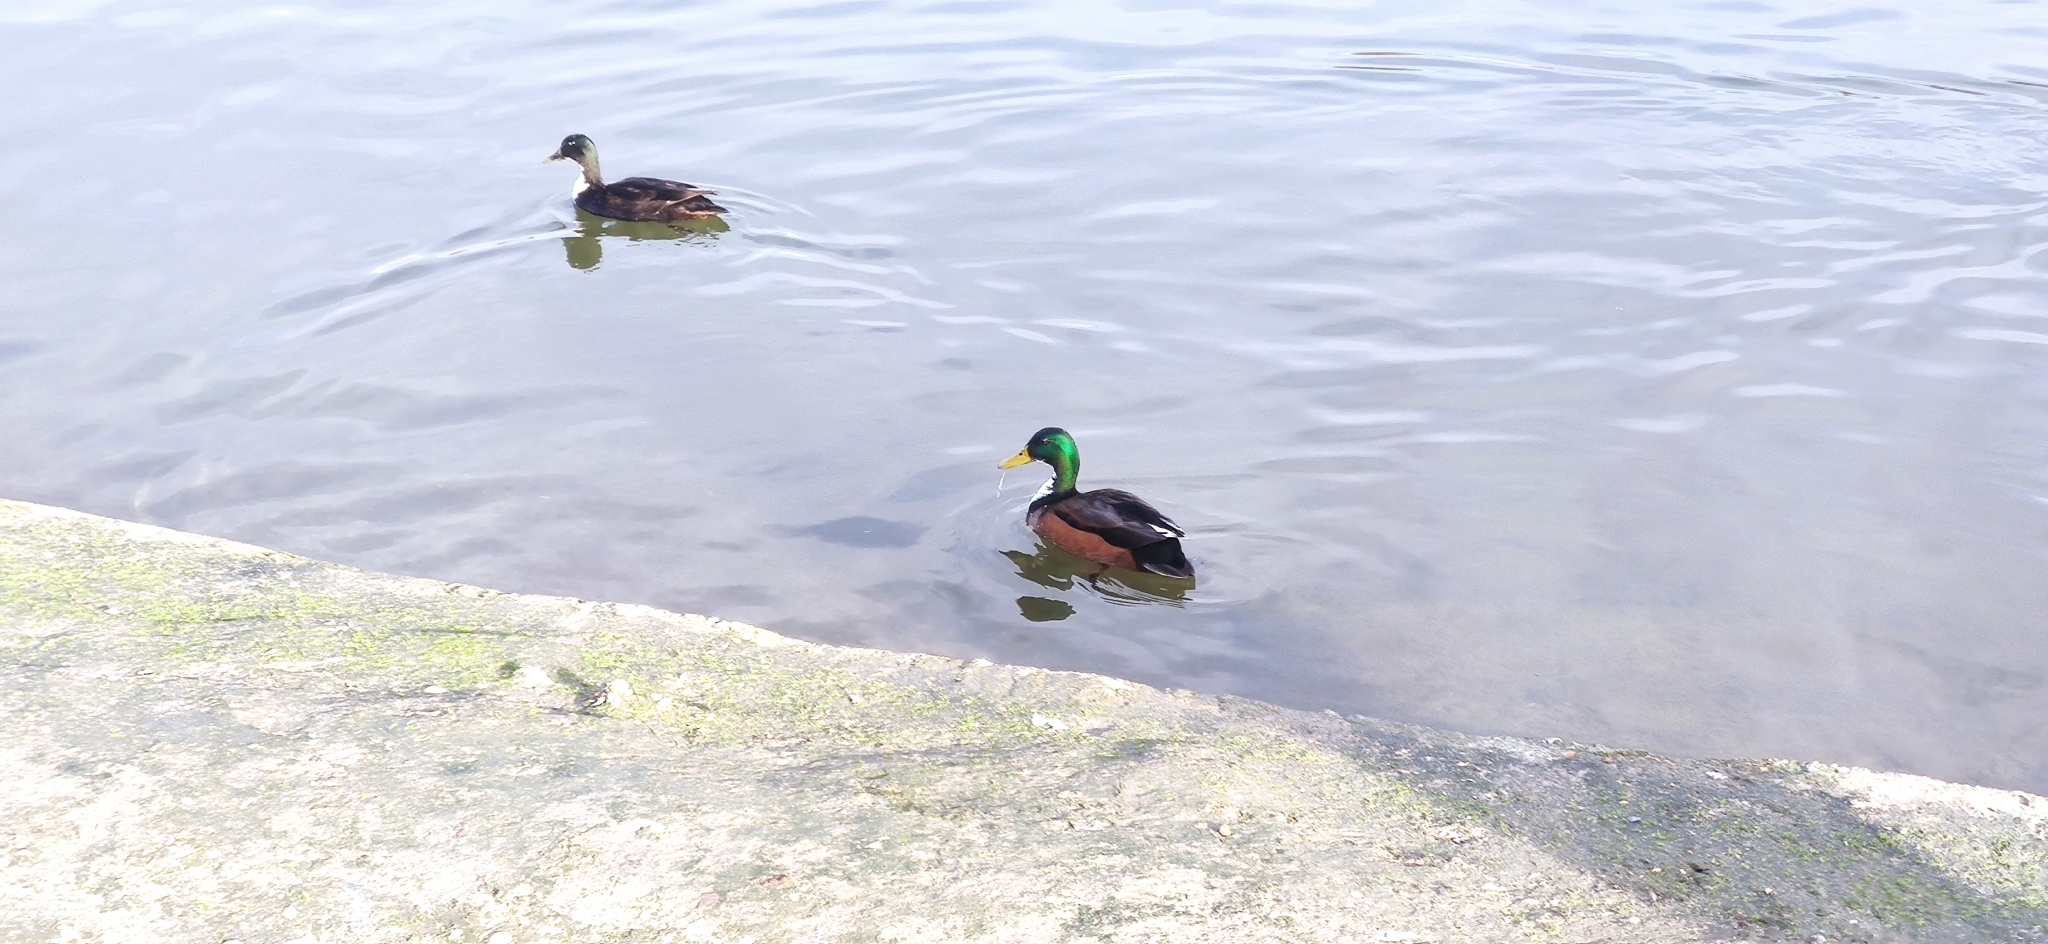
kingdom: Animalia
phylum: Chordata
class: Aves
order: Anseriformes
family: Anatidae
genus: Anas
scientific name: Anas platyrhynchos
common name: Mallard
